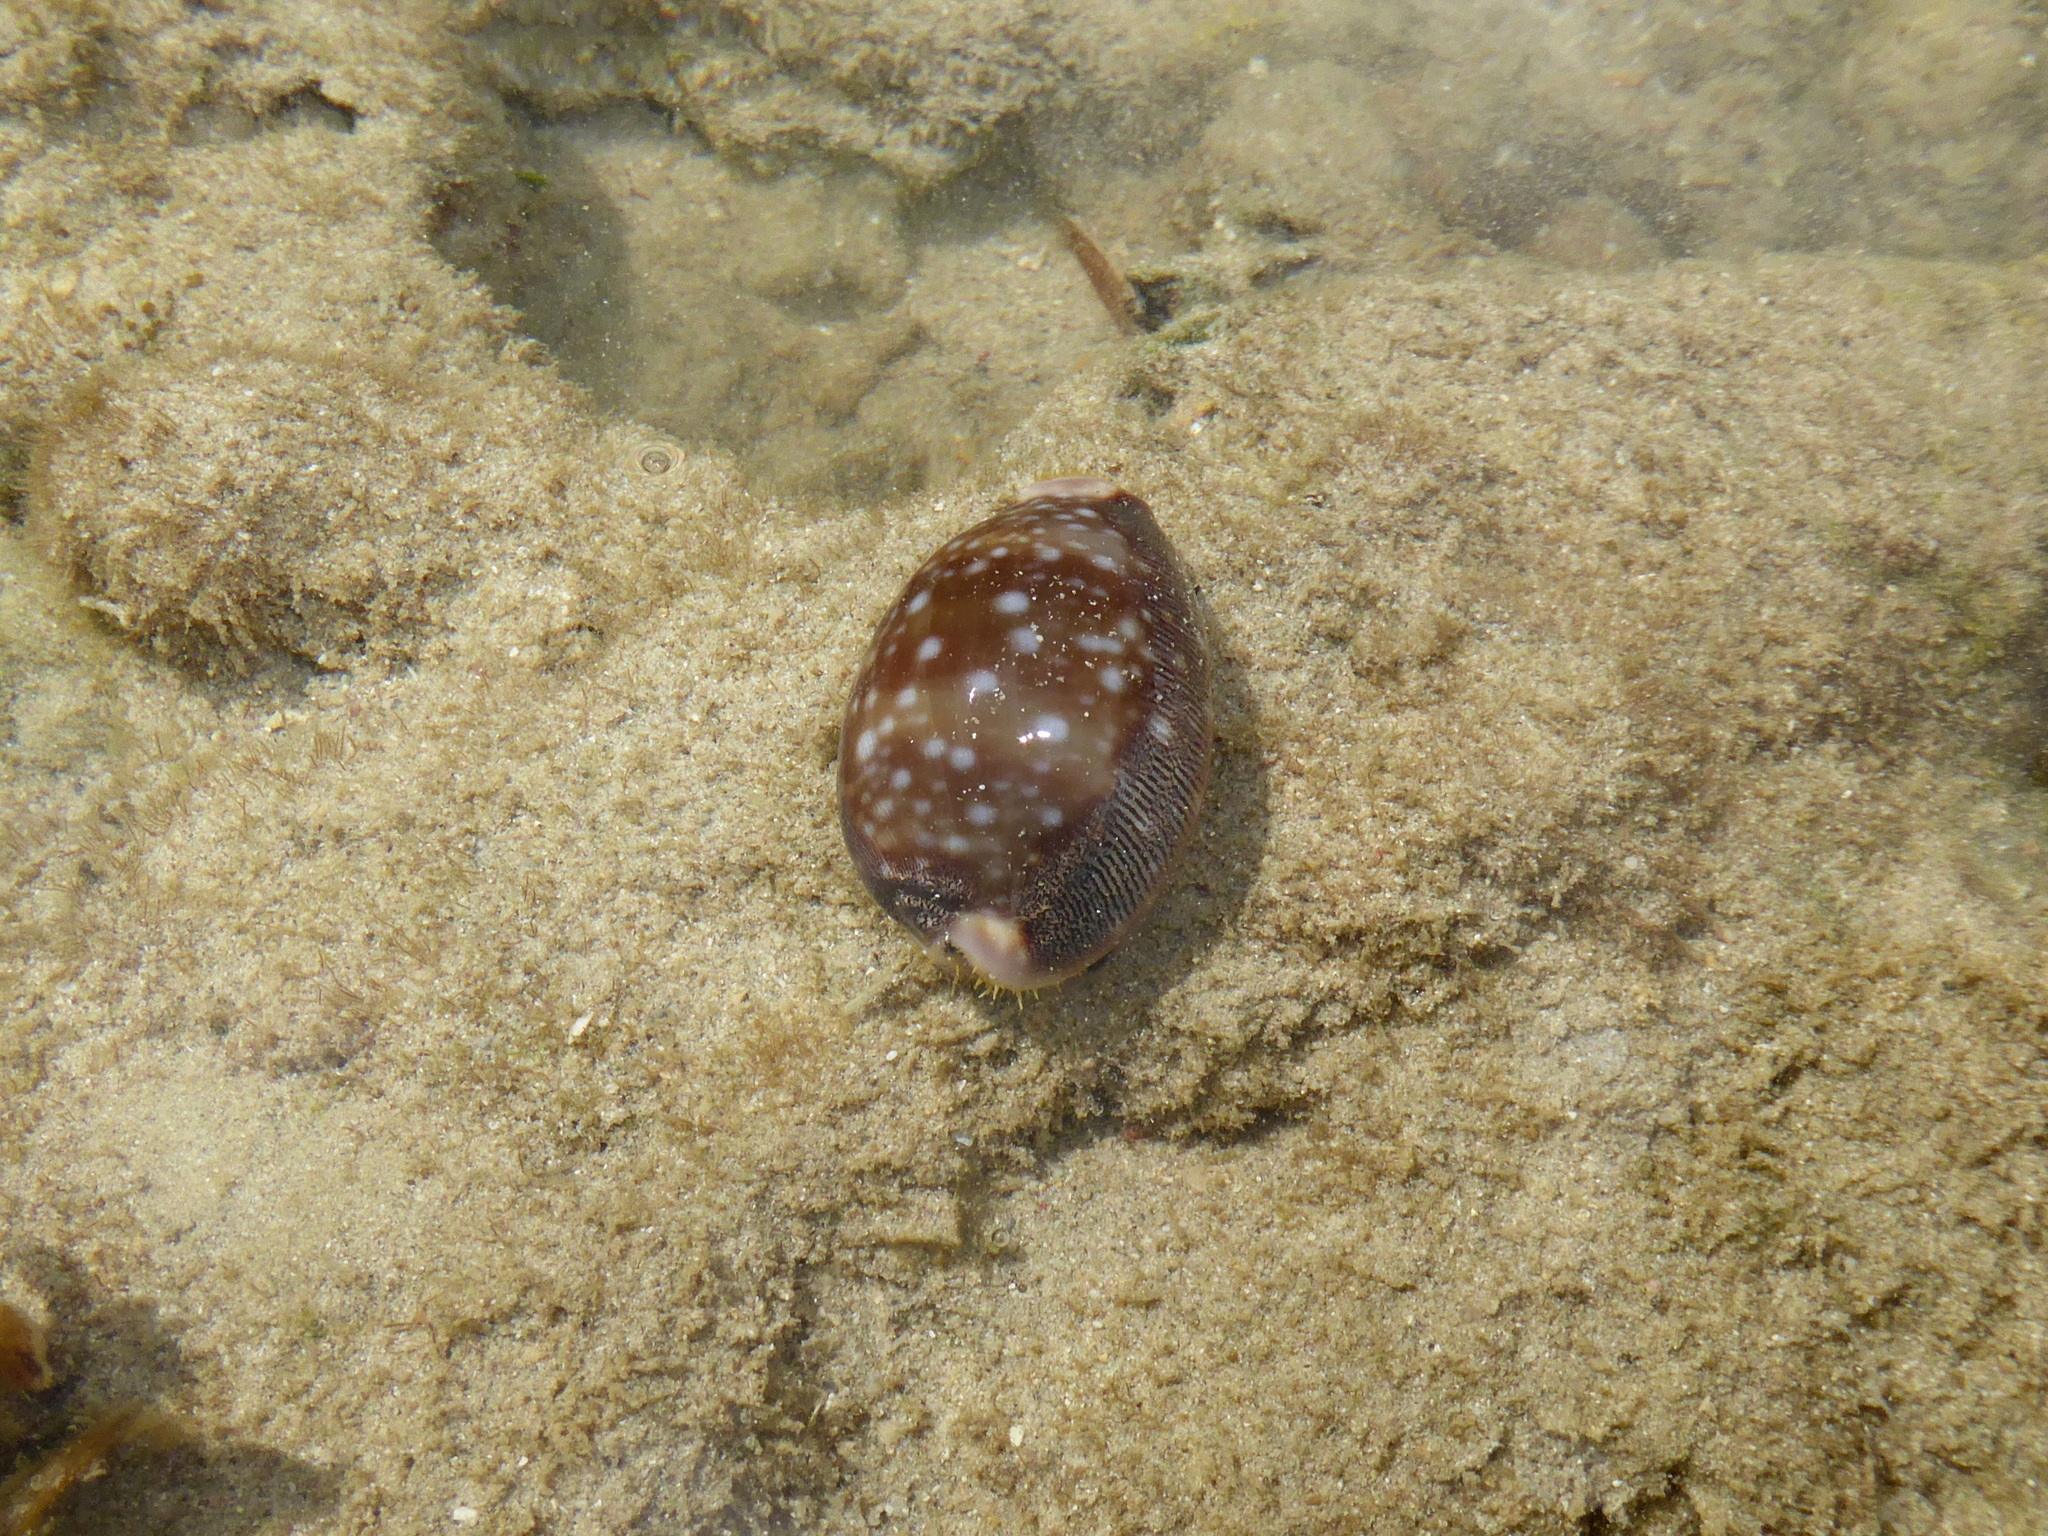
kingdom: Animalia
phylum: Mollusca
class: Gastropoda
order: Littorinimorpha
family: Cypraeidae
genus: Lyncina
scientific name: Lyncina vitellus
